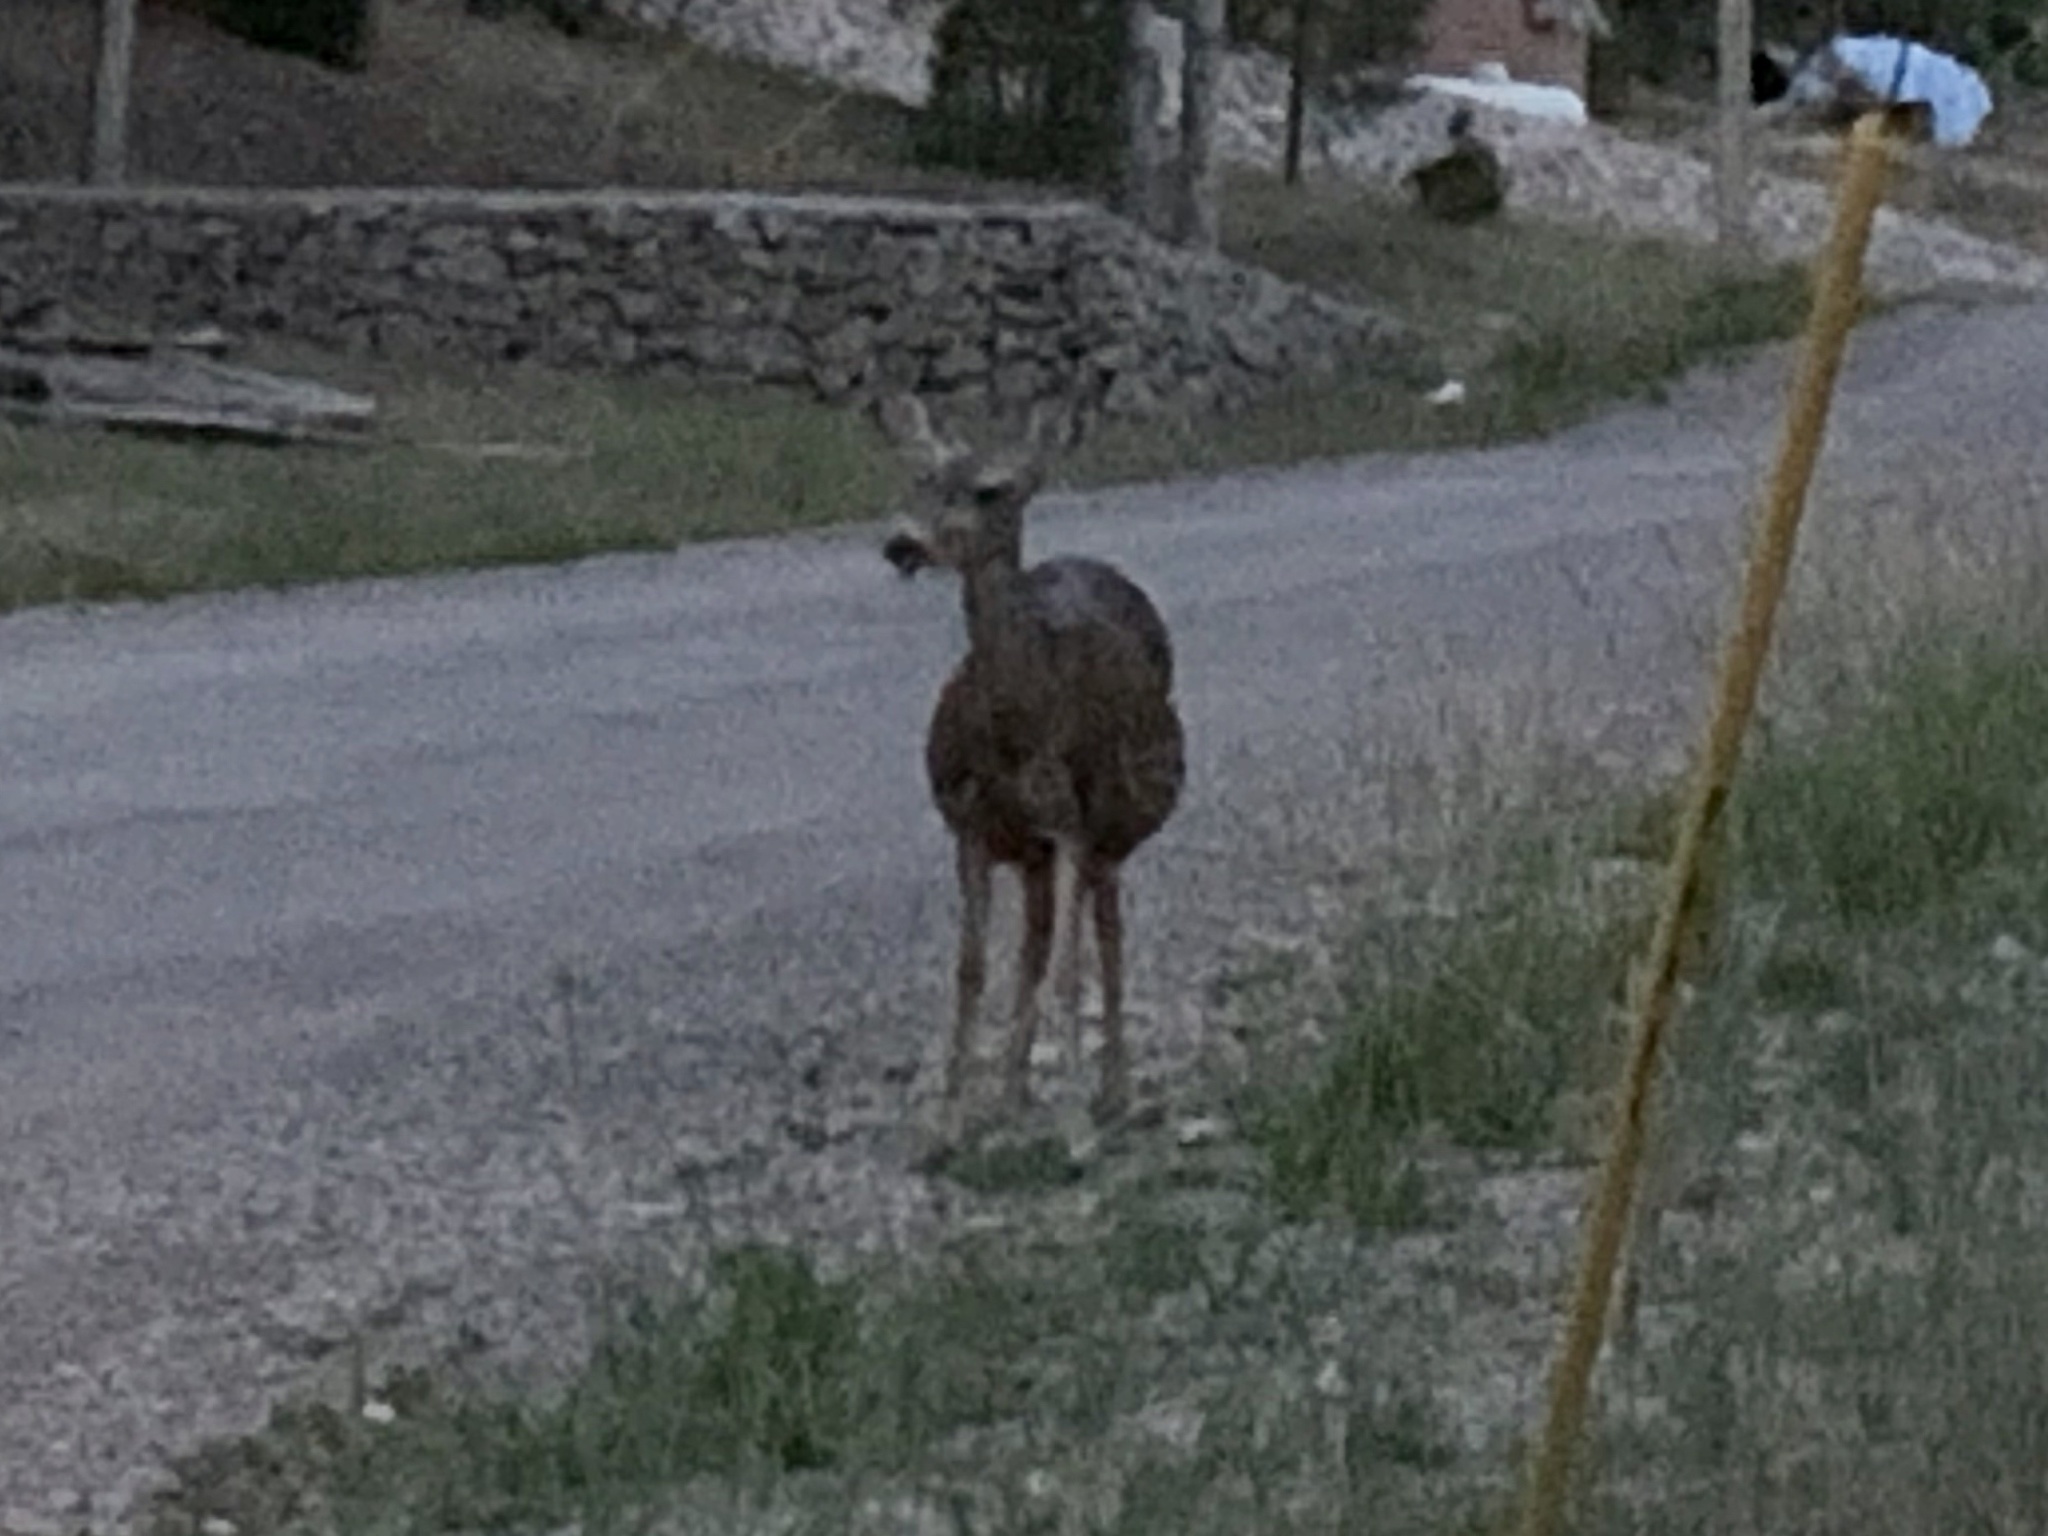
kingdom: Animalia
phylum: Chordata
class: Mammalia
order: Artiodactyla
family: Cervidae
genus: Odocoileus
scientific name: Odocoileus hemionus
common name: Mule deer
